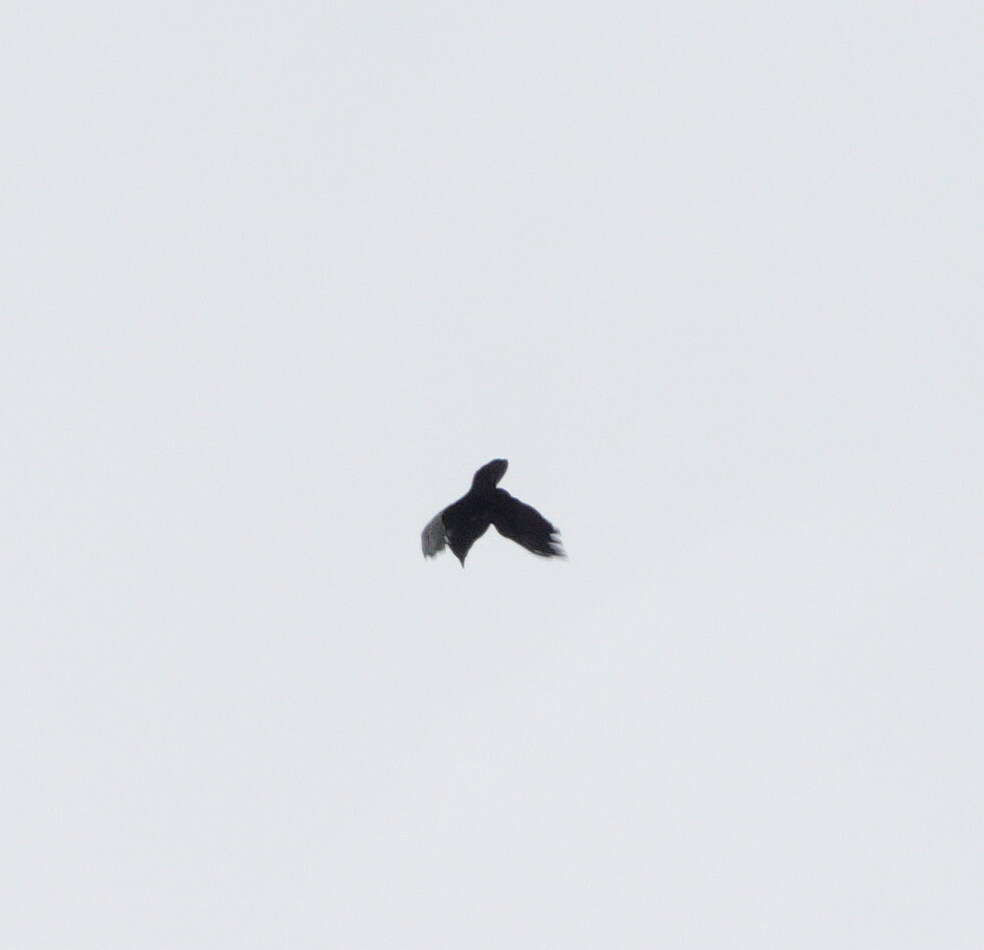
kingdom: Animalia
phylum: Chordata
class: Aves
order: Passeriformes
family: Corvidae
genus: Corvus
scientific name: Corvus corax
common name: Common raven
